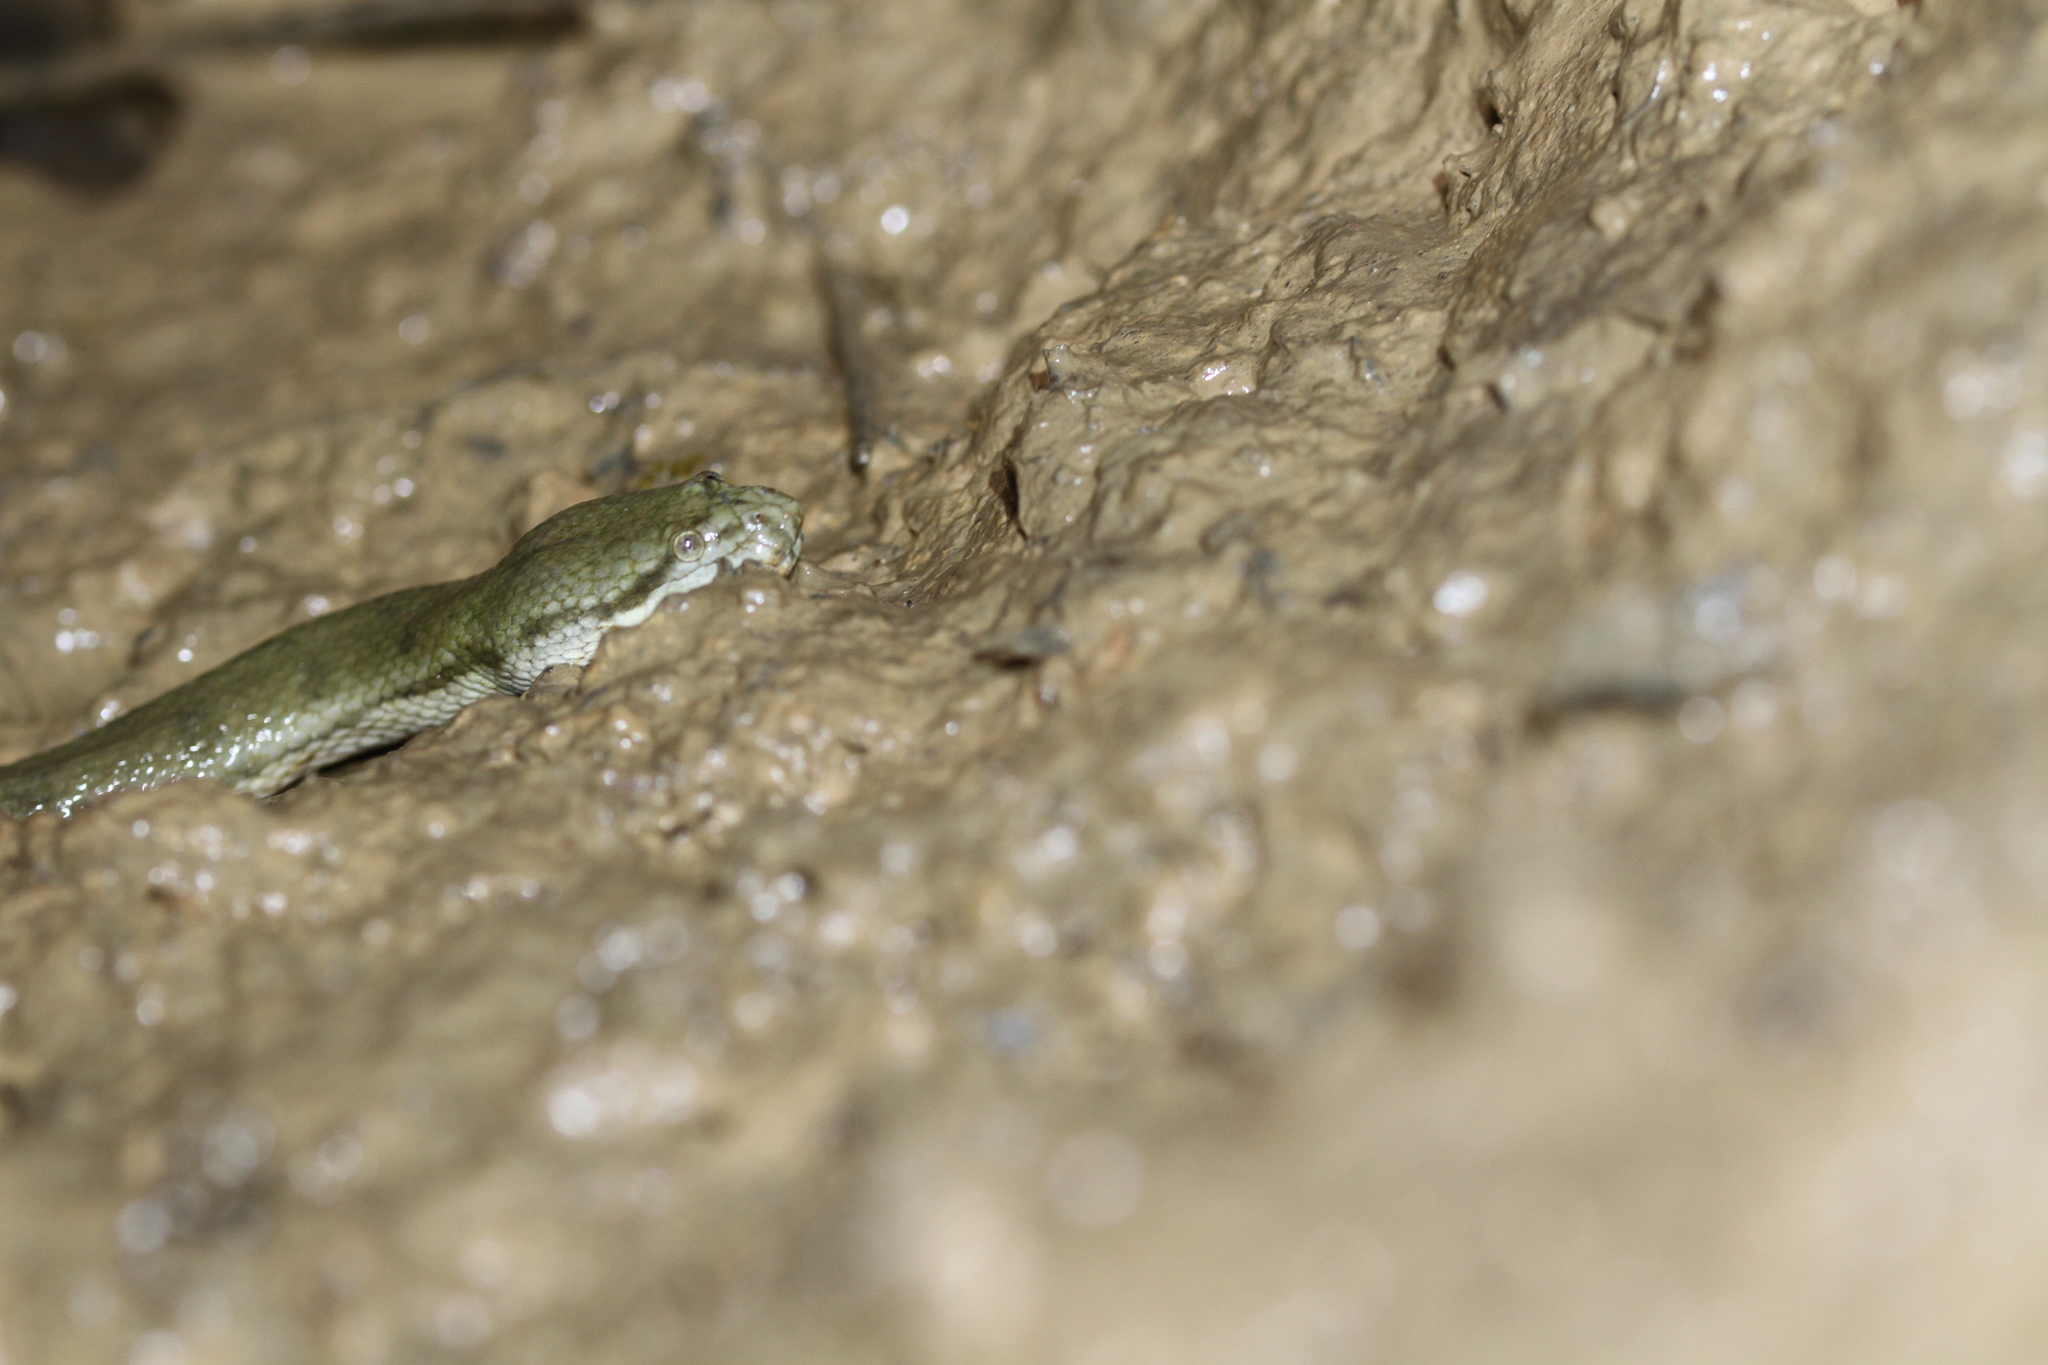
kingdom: Animalia
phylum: Chordata
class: Squamata
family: Homalopsidae
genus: Cerberus
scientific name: Cerberus schneiderii
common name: Southeast asian bockadam
